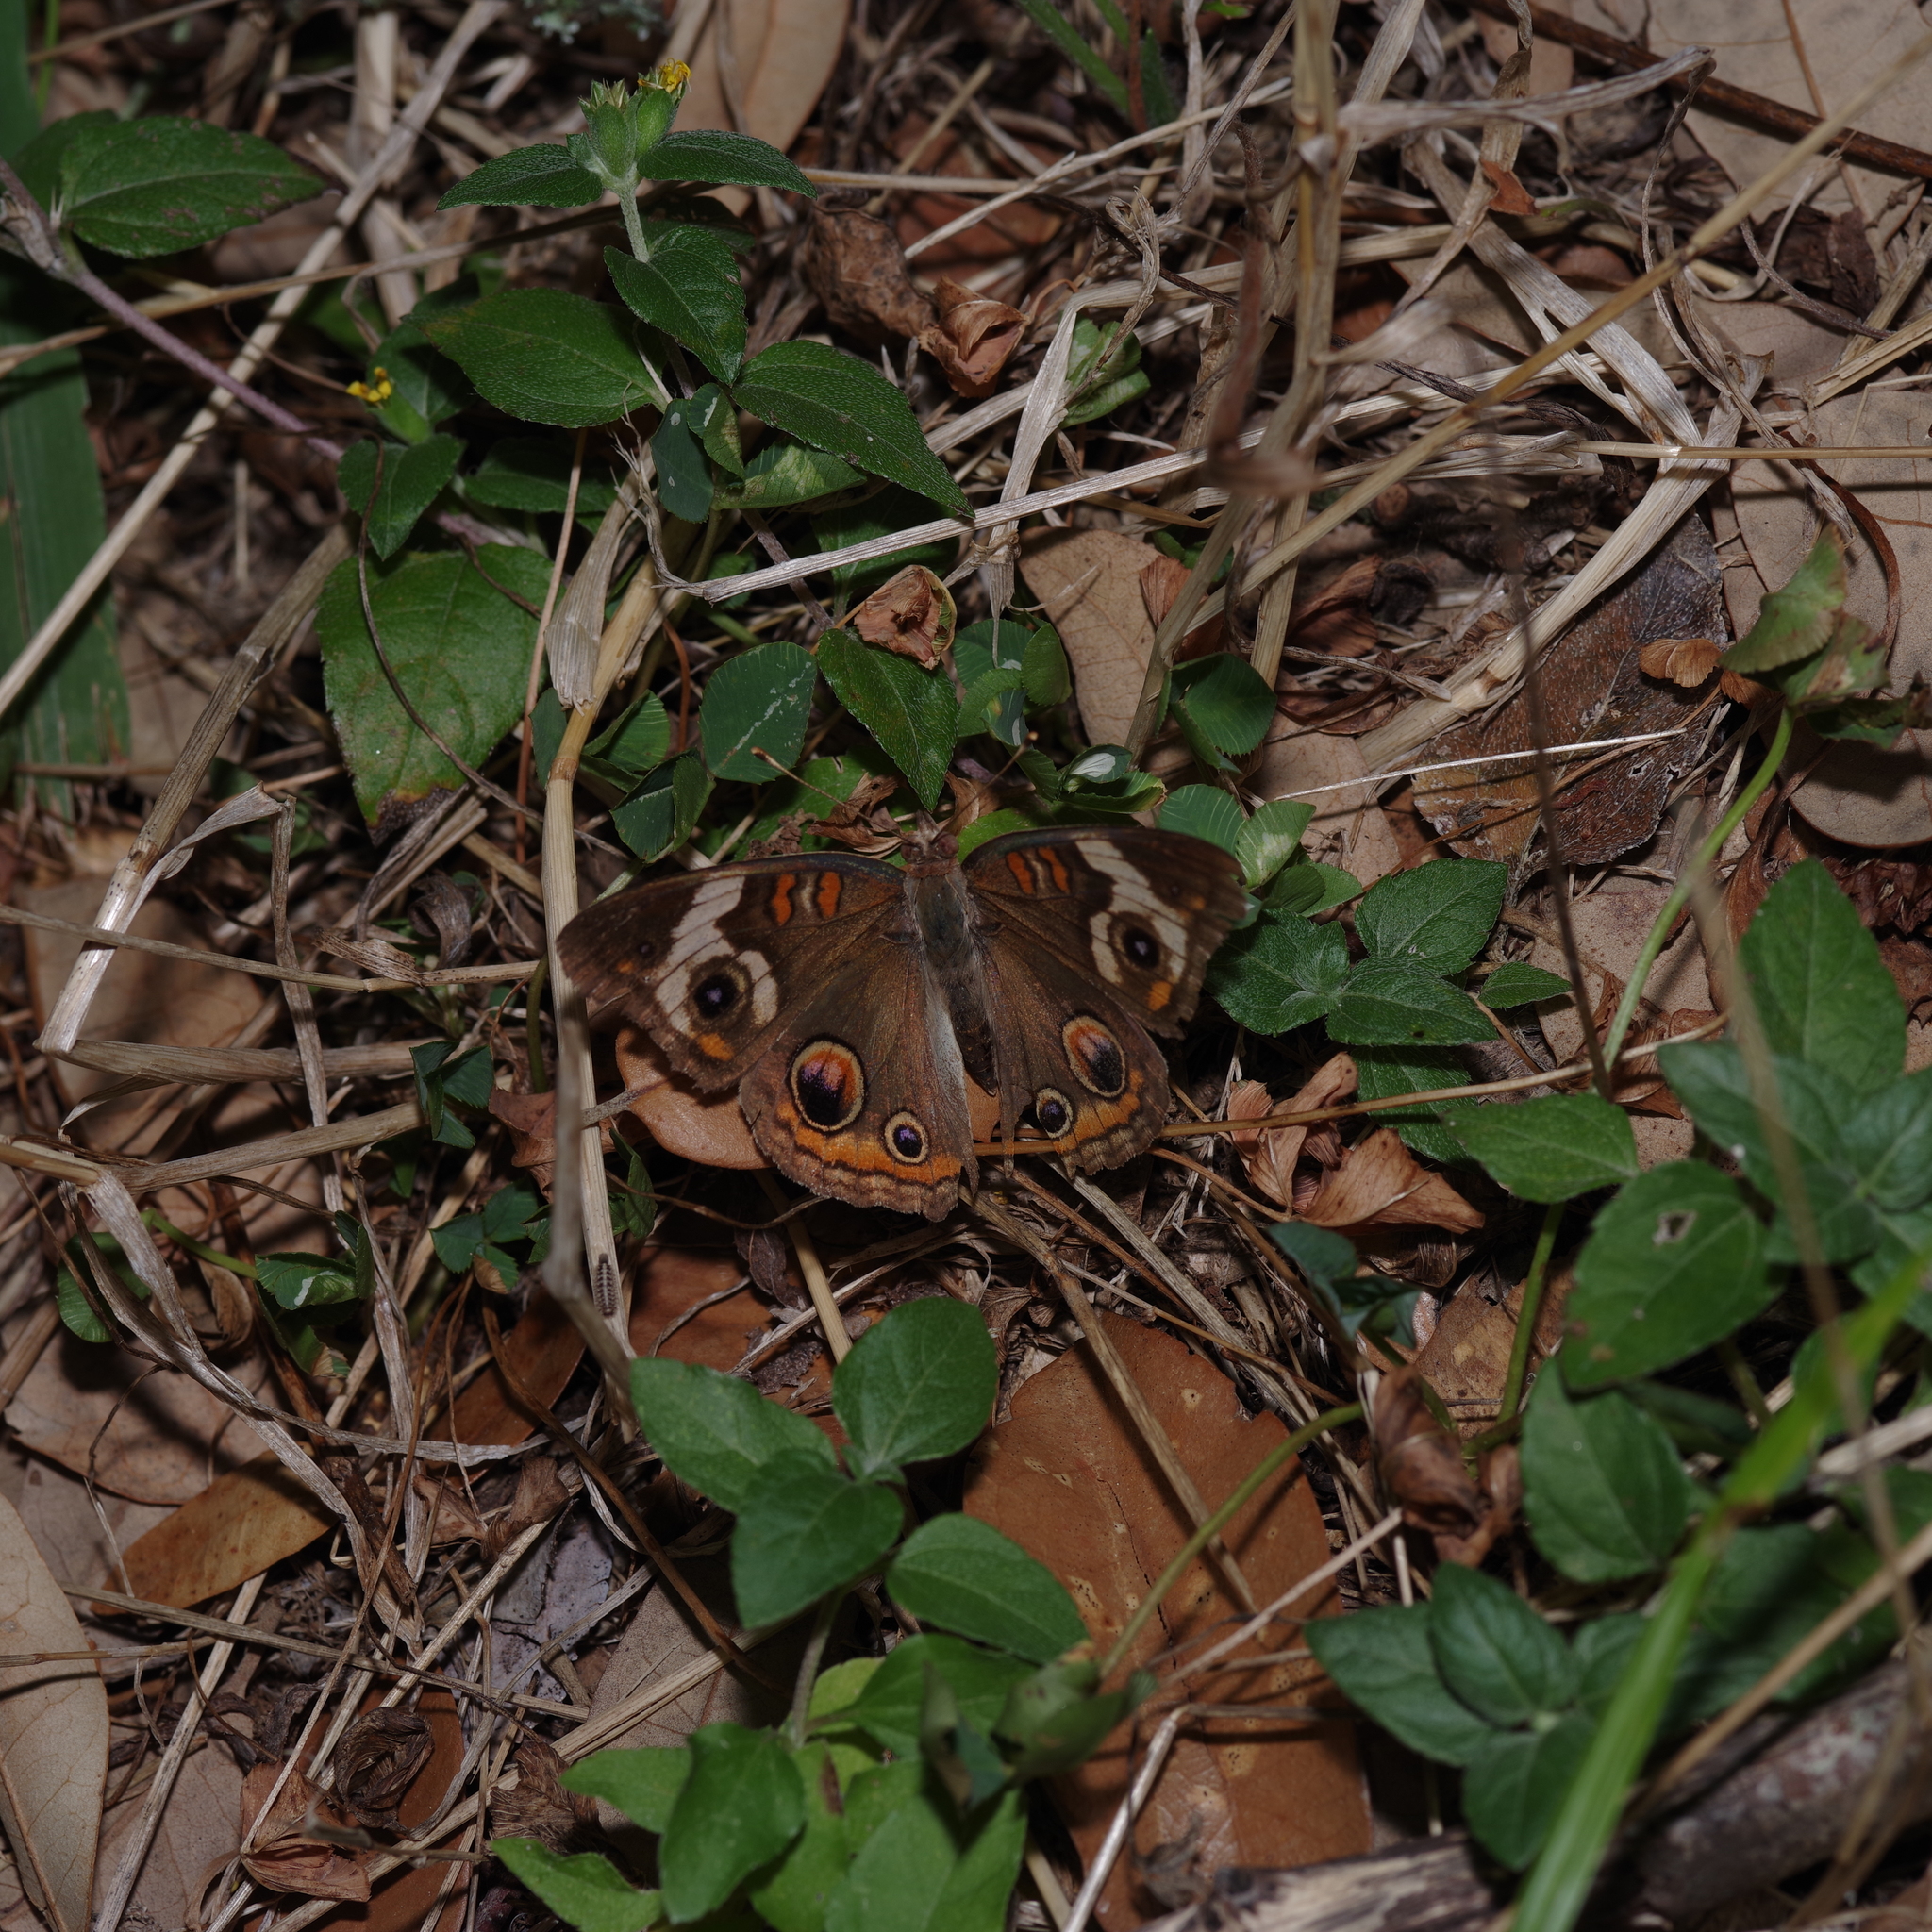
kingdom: Animalia
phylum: Arthropoda
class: Insecta
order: Lepidoptera
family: Nymphalidae
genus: Junonia
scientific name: Junonia coenia
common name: Common buckeye
